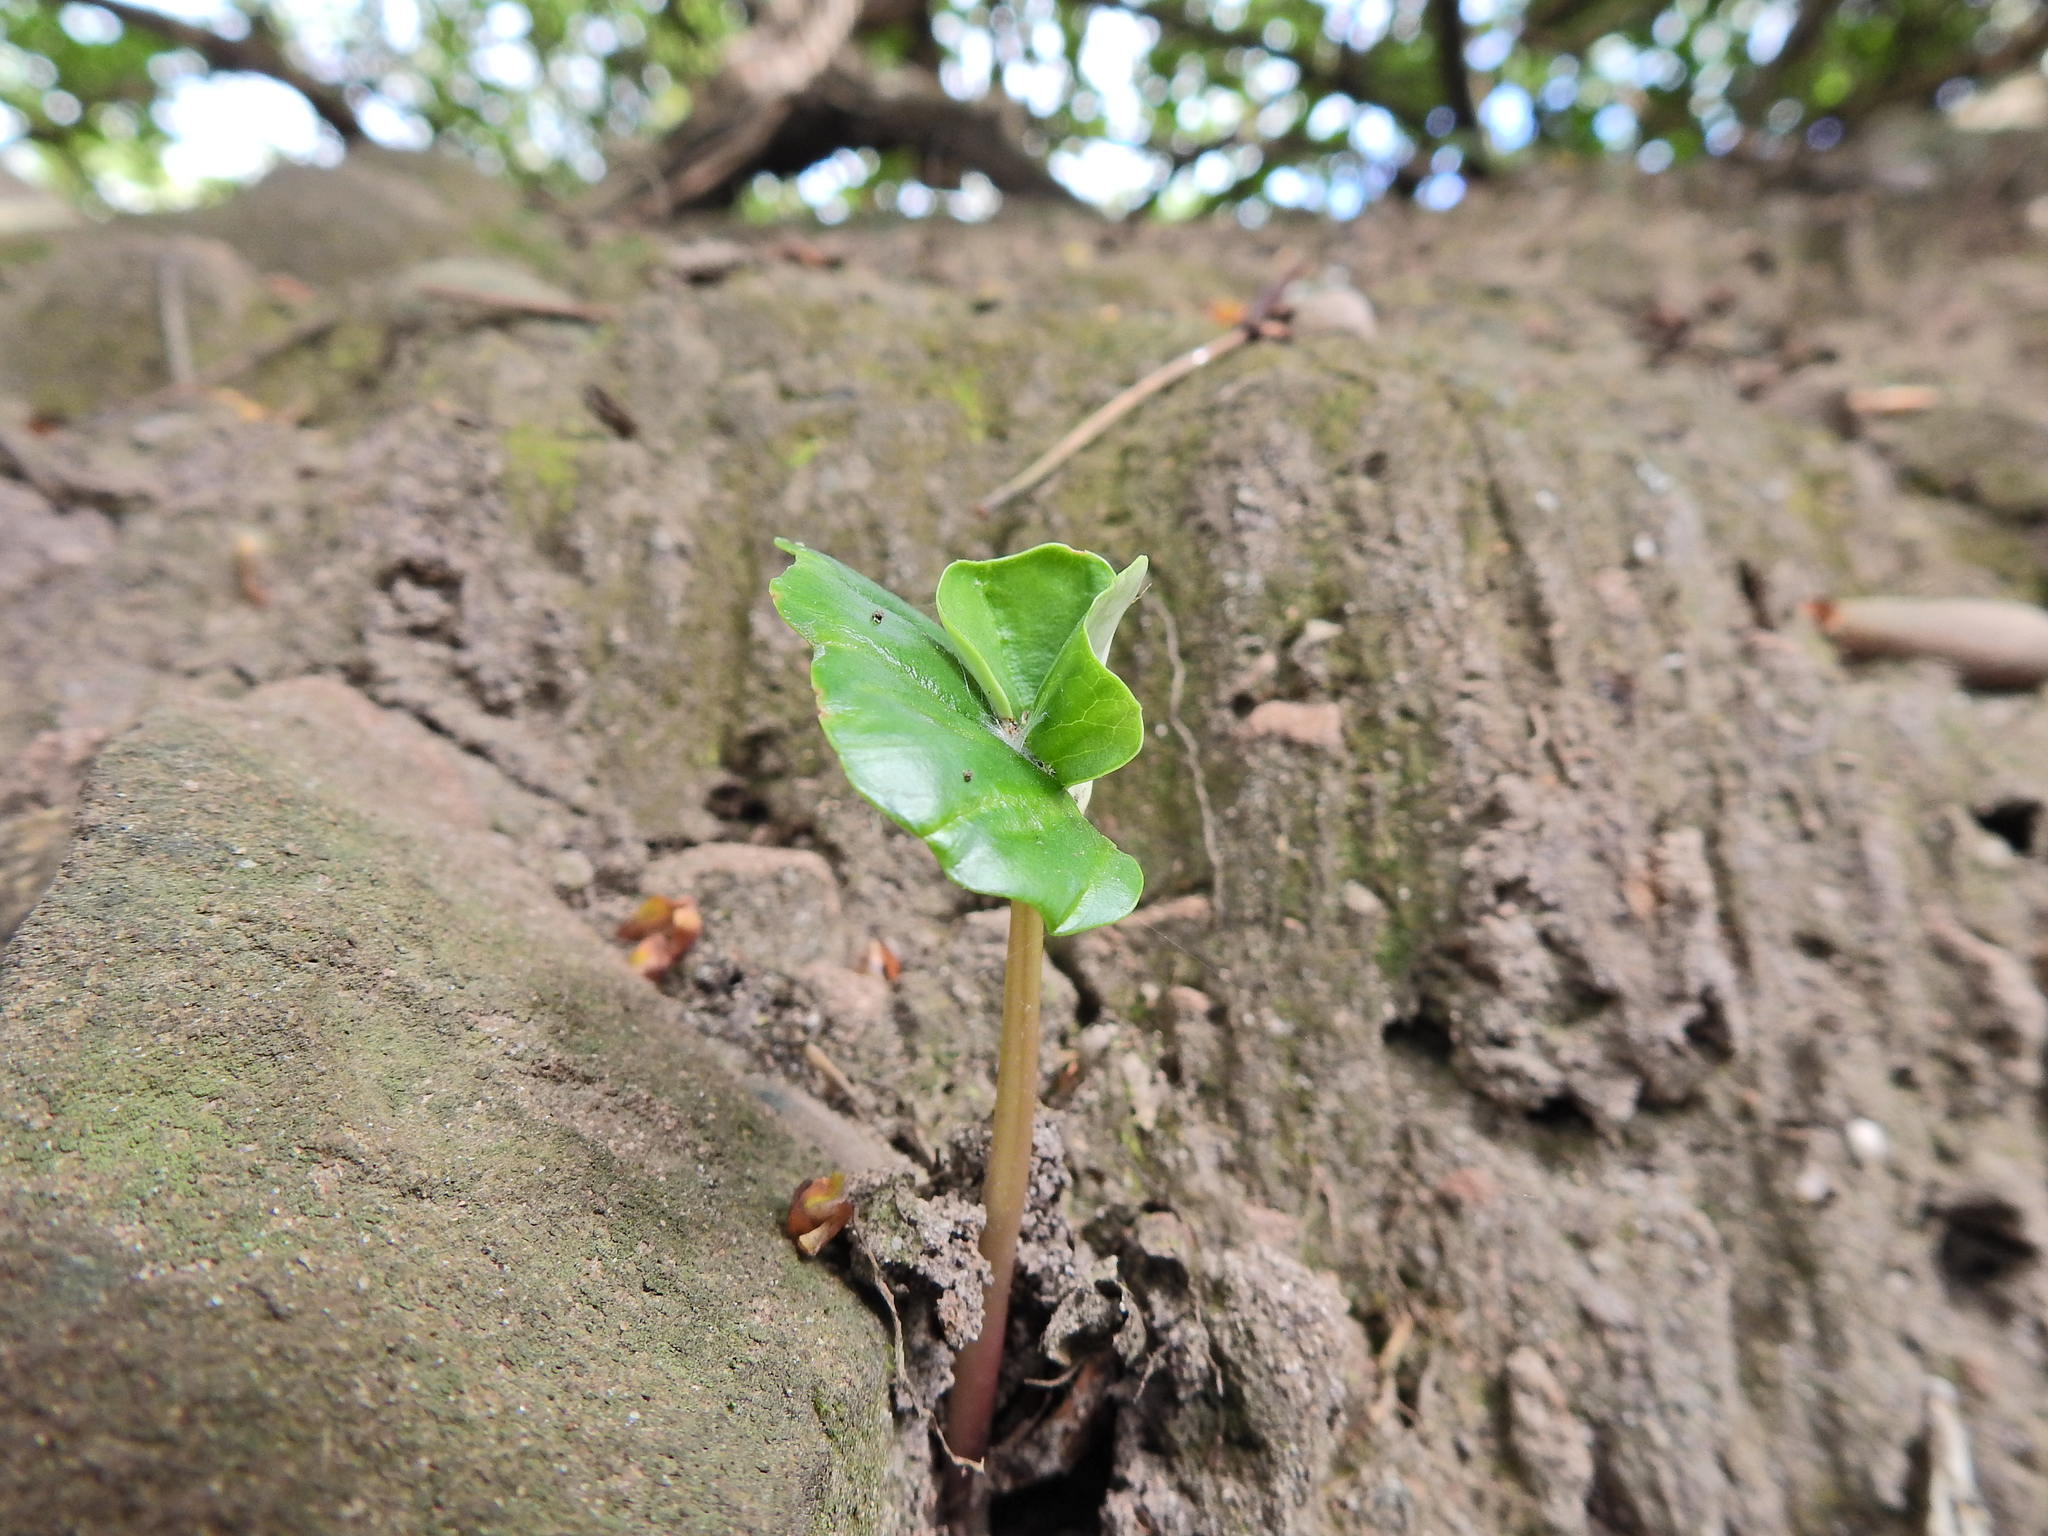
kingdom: Plantae
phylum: Tracheophyta
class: Magnoliopsida
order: Fagales
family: Fagaceae
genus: Fagus
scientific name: Fagus sylvatica
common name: Beech
